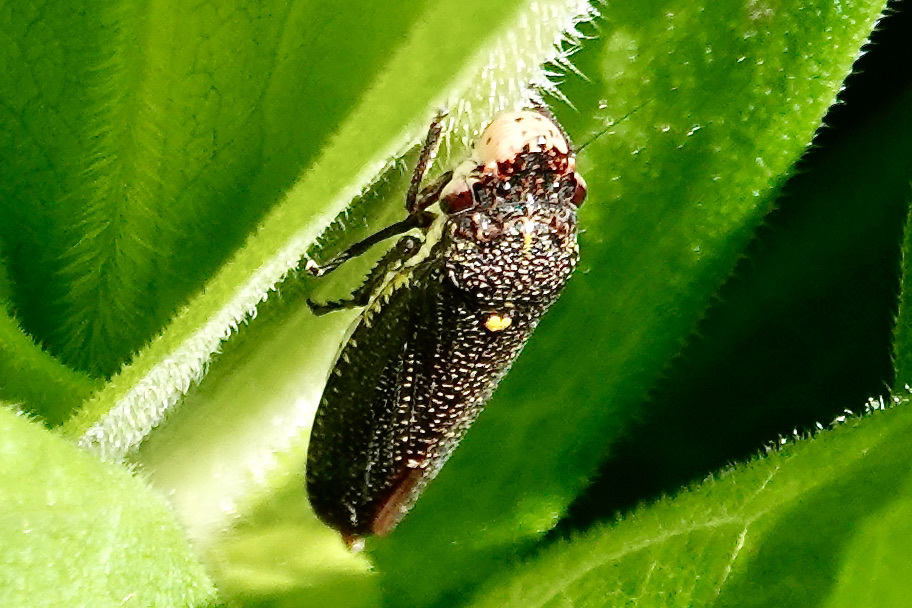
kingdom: Animalia
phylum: Arthropoda
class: Insecta
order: Hemiptera
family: Cicadellidae
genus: Paraulacizes
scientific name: Paraulacizes irrorata
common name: Speckled sharpshooter
